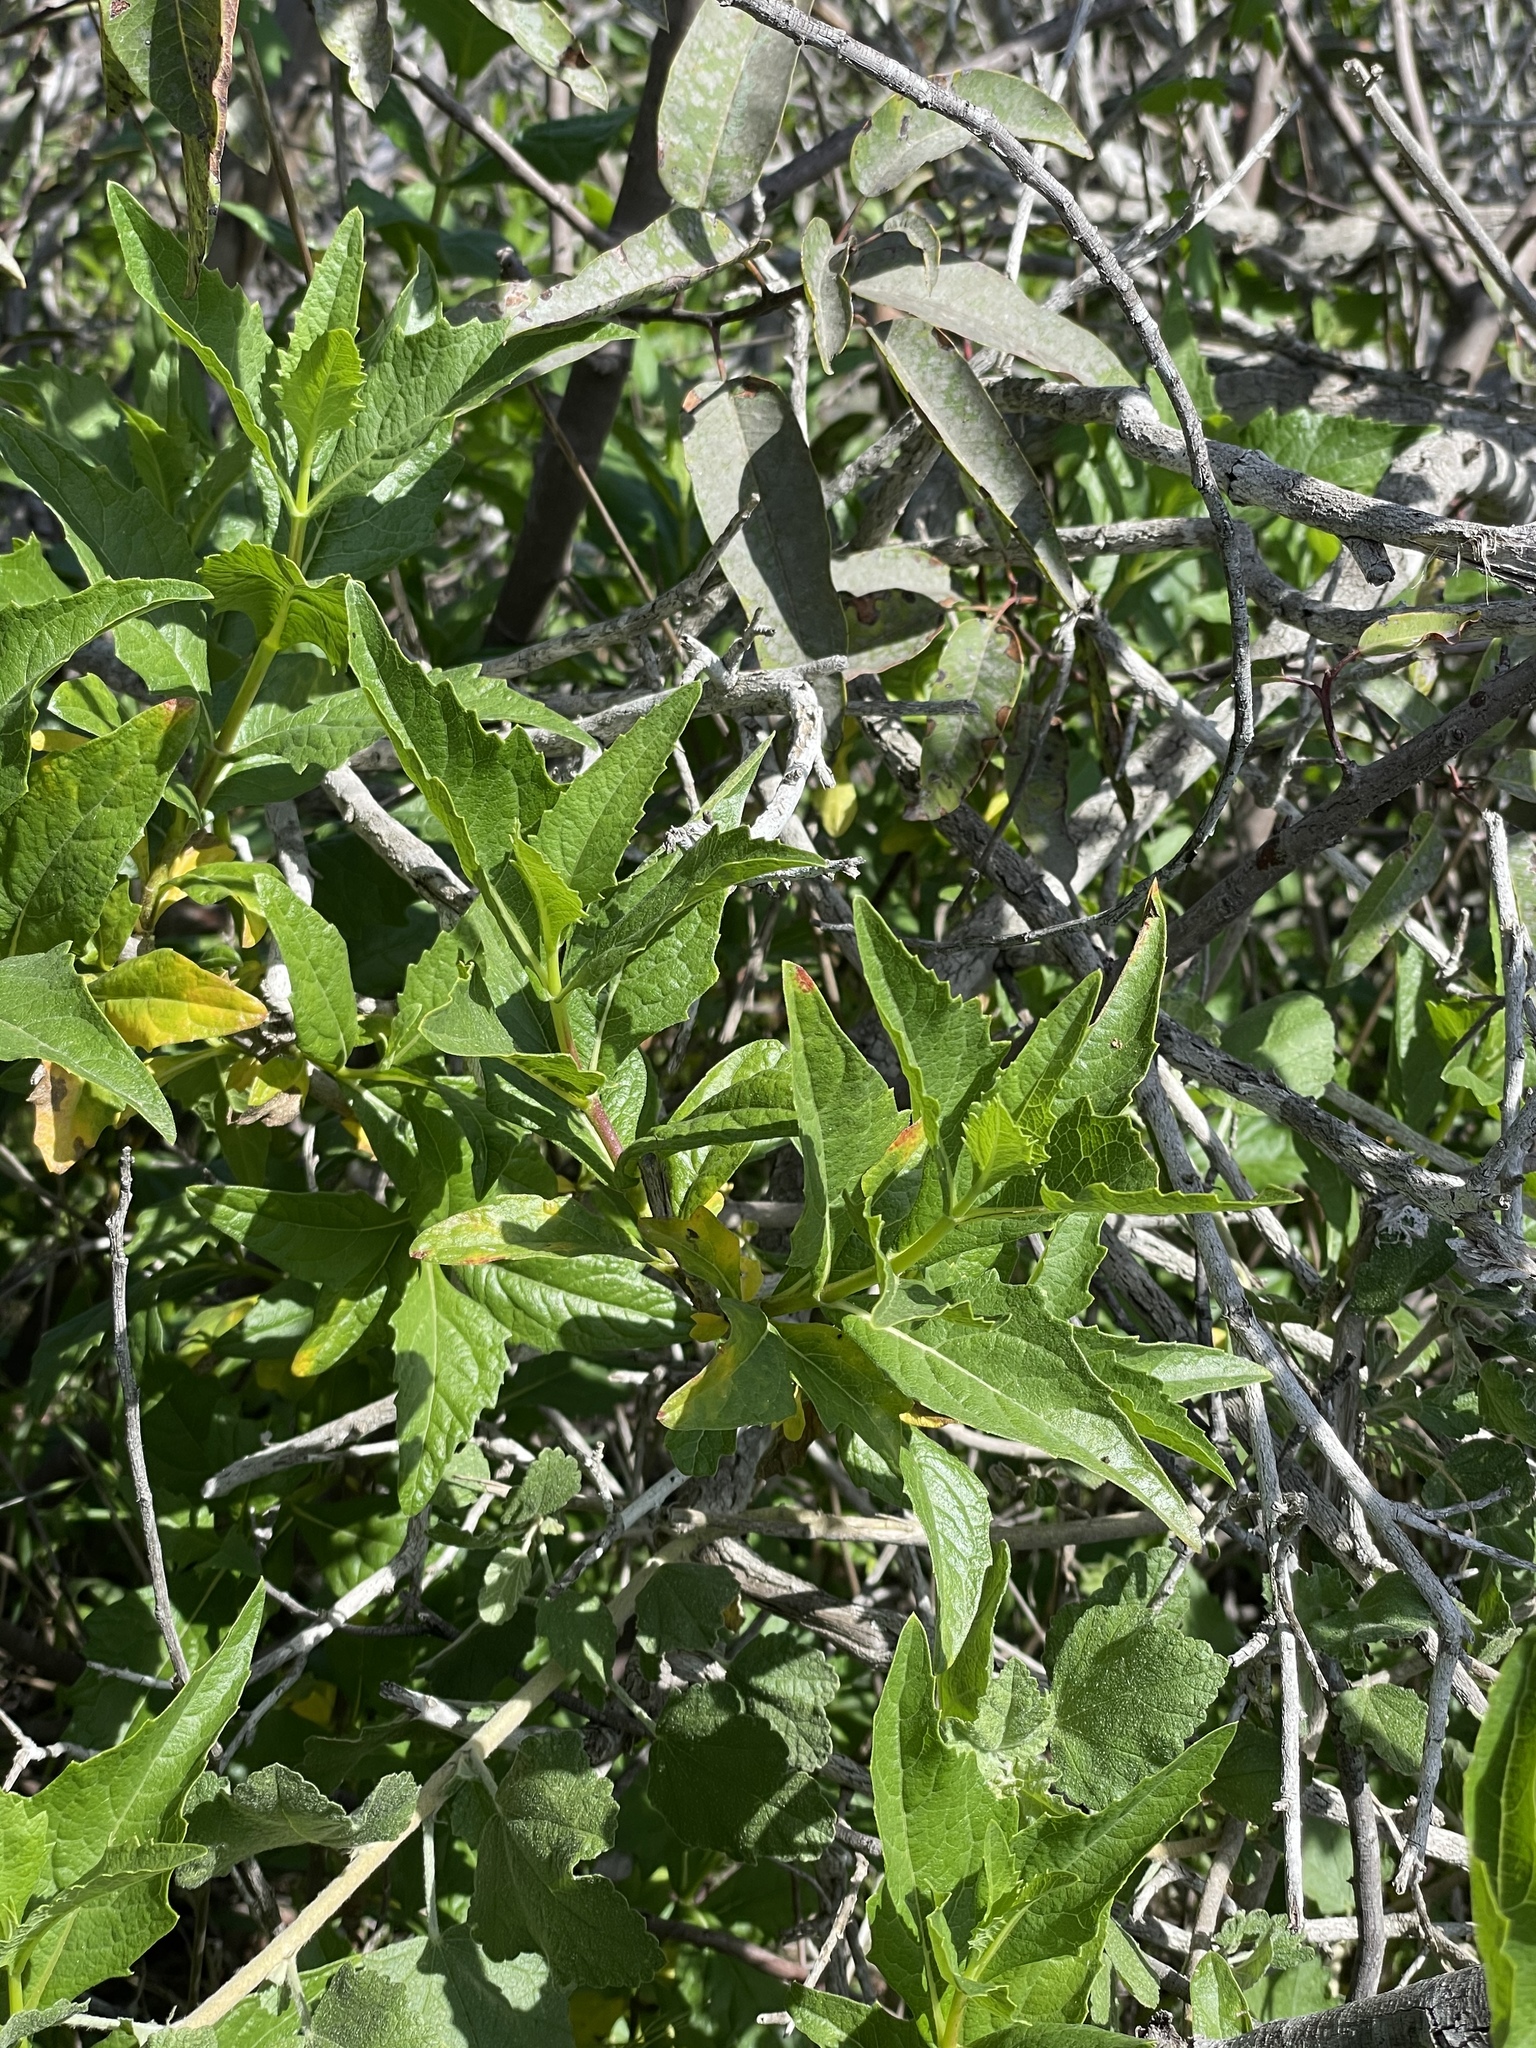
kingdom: Plantae
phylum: Tracheophyta
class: Magnoliopsida
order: Asterales
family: Asteraceae
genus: Verbesina
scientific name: Verbesina dissita
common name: Big-leaf crownbeard
